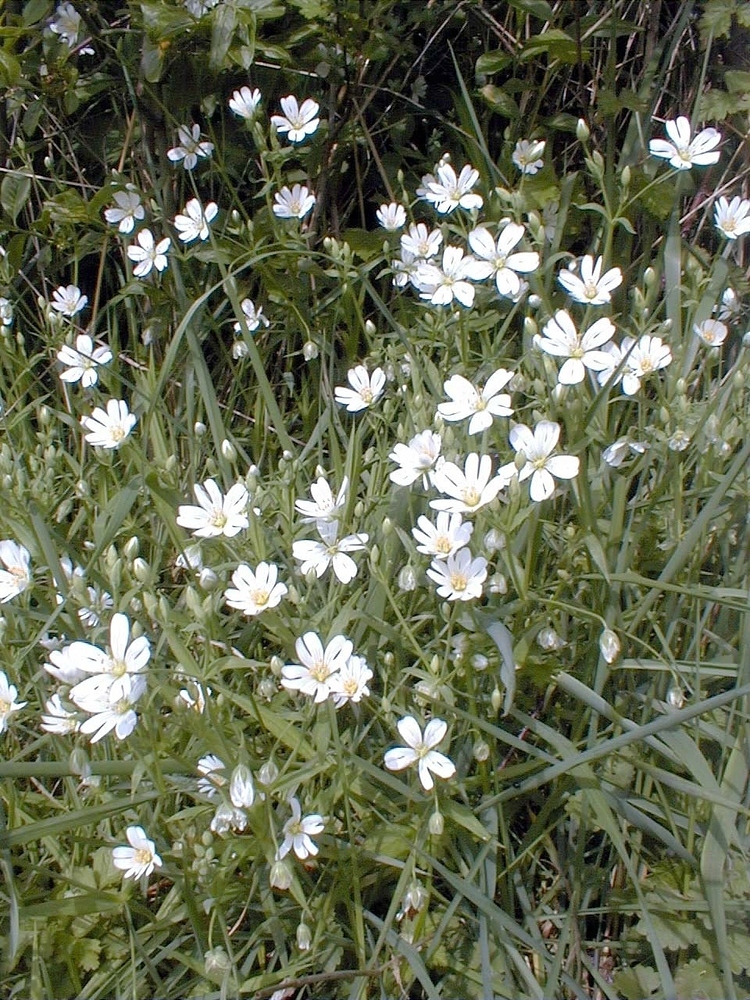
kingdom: Plantae
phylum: Tracheophyta
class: Magnoliopsida
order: Caryophyllales
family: Caryophyllaceae
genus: Rabelera
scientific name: Rabelera holostea
